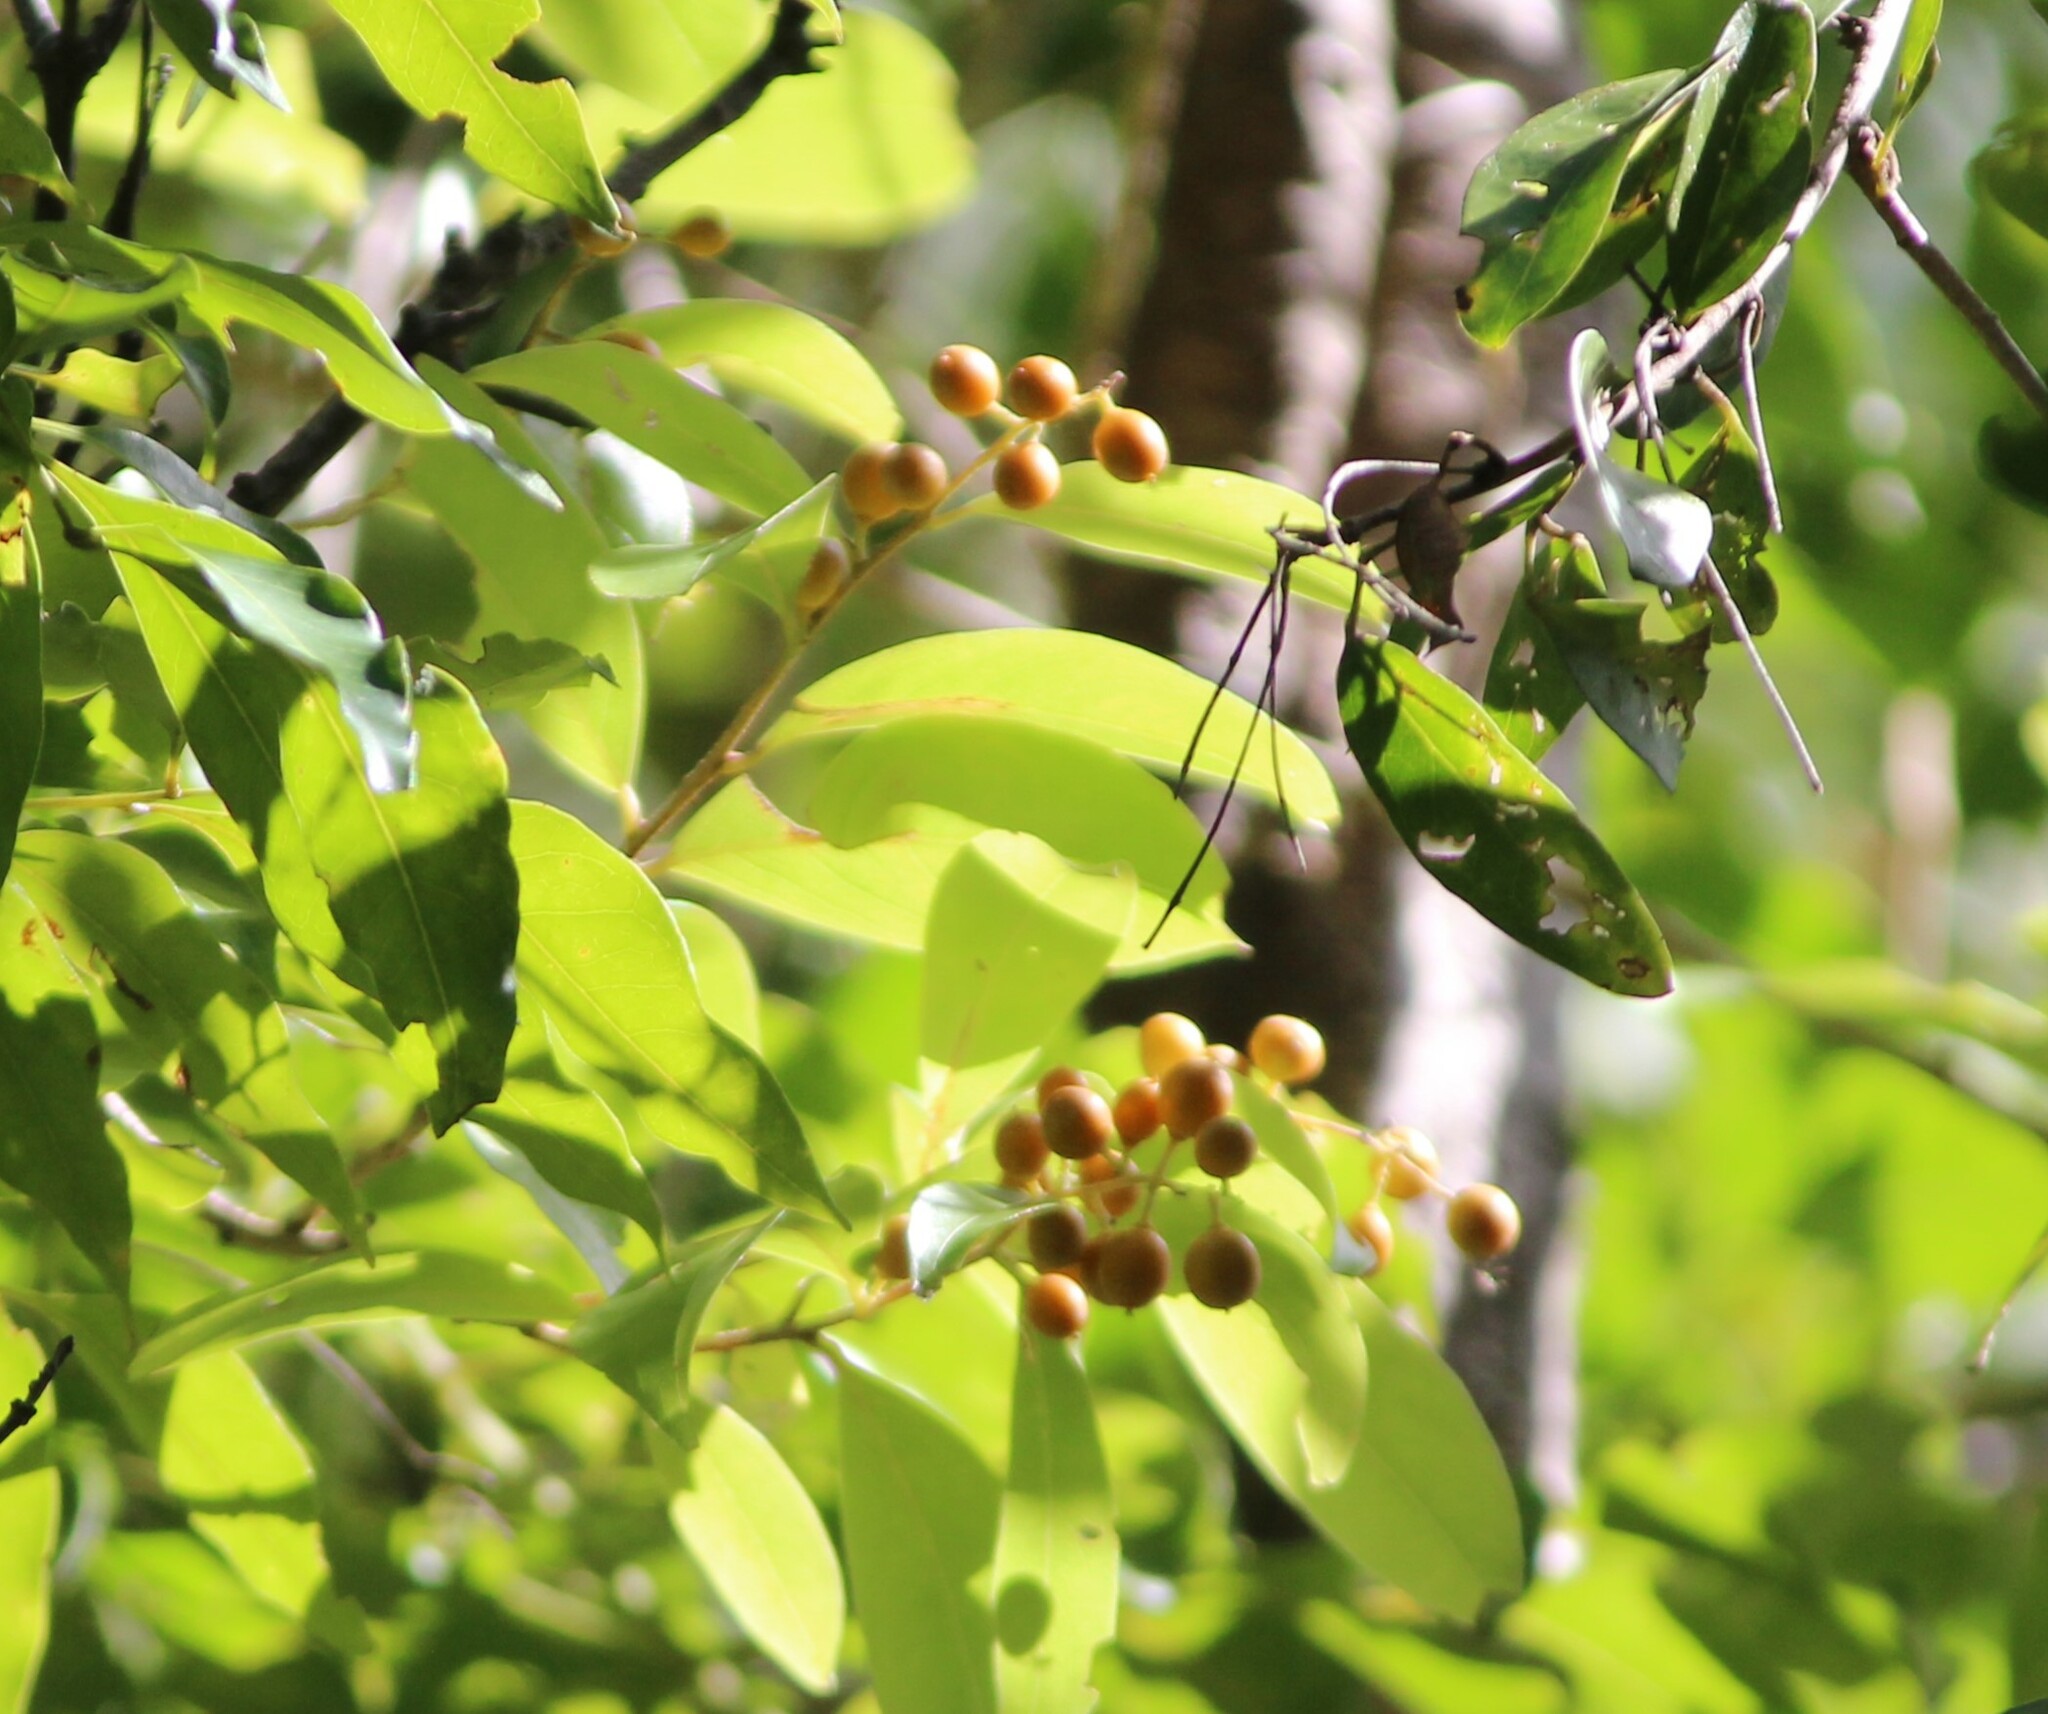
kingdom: Plantae
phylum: Tracheophyta
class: Magnoliopsida
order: Celastrales
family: Celastraceae
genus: Denhamia
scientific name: Denhamia disperma
